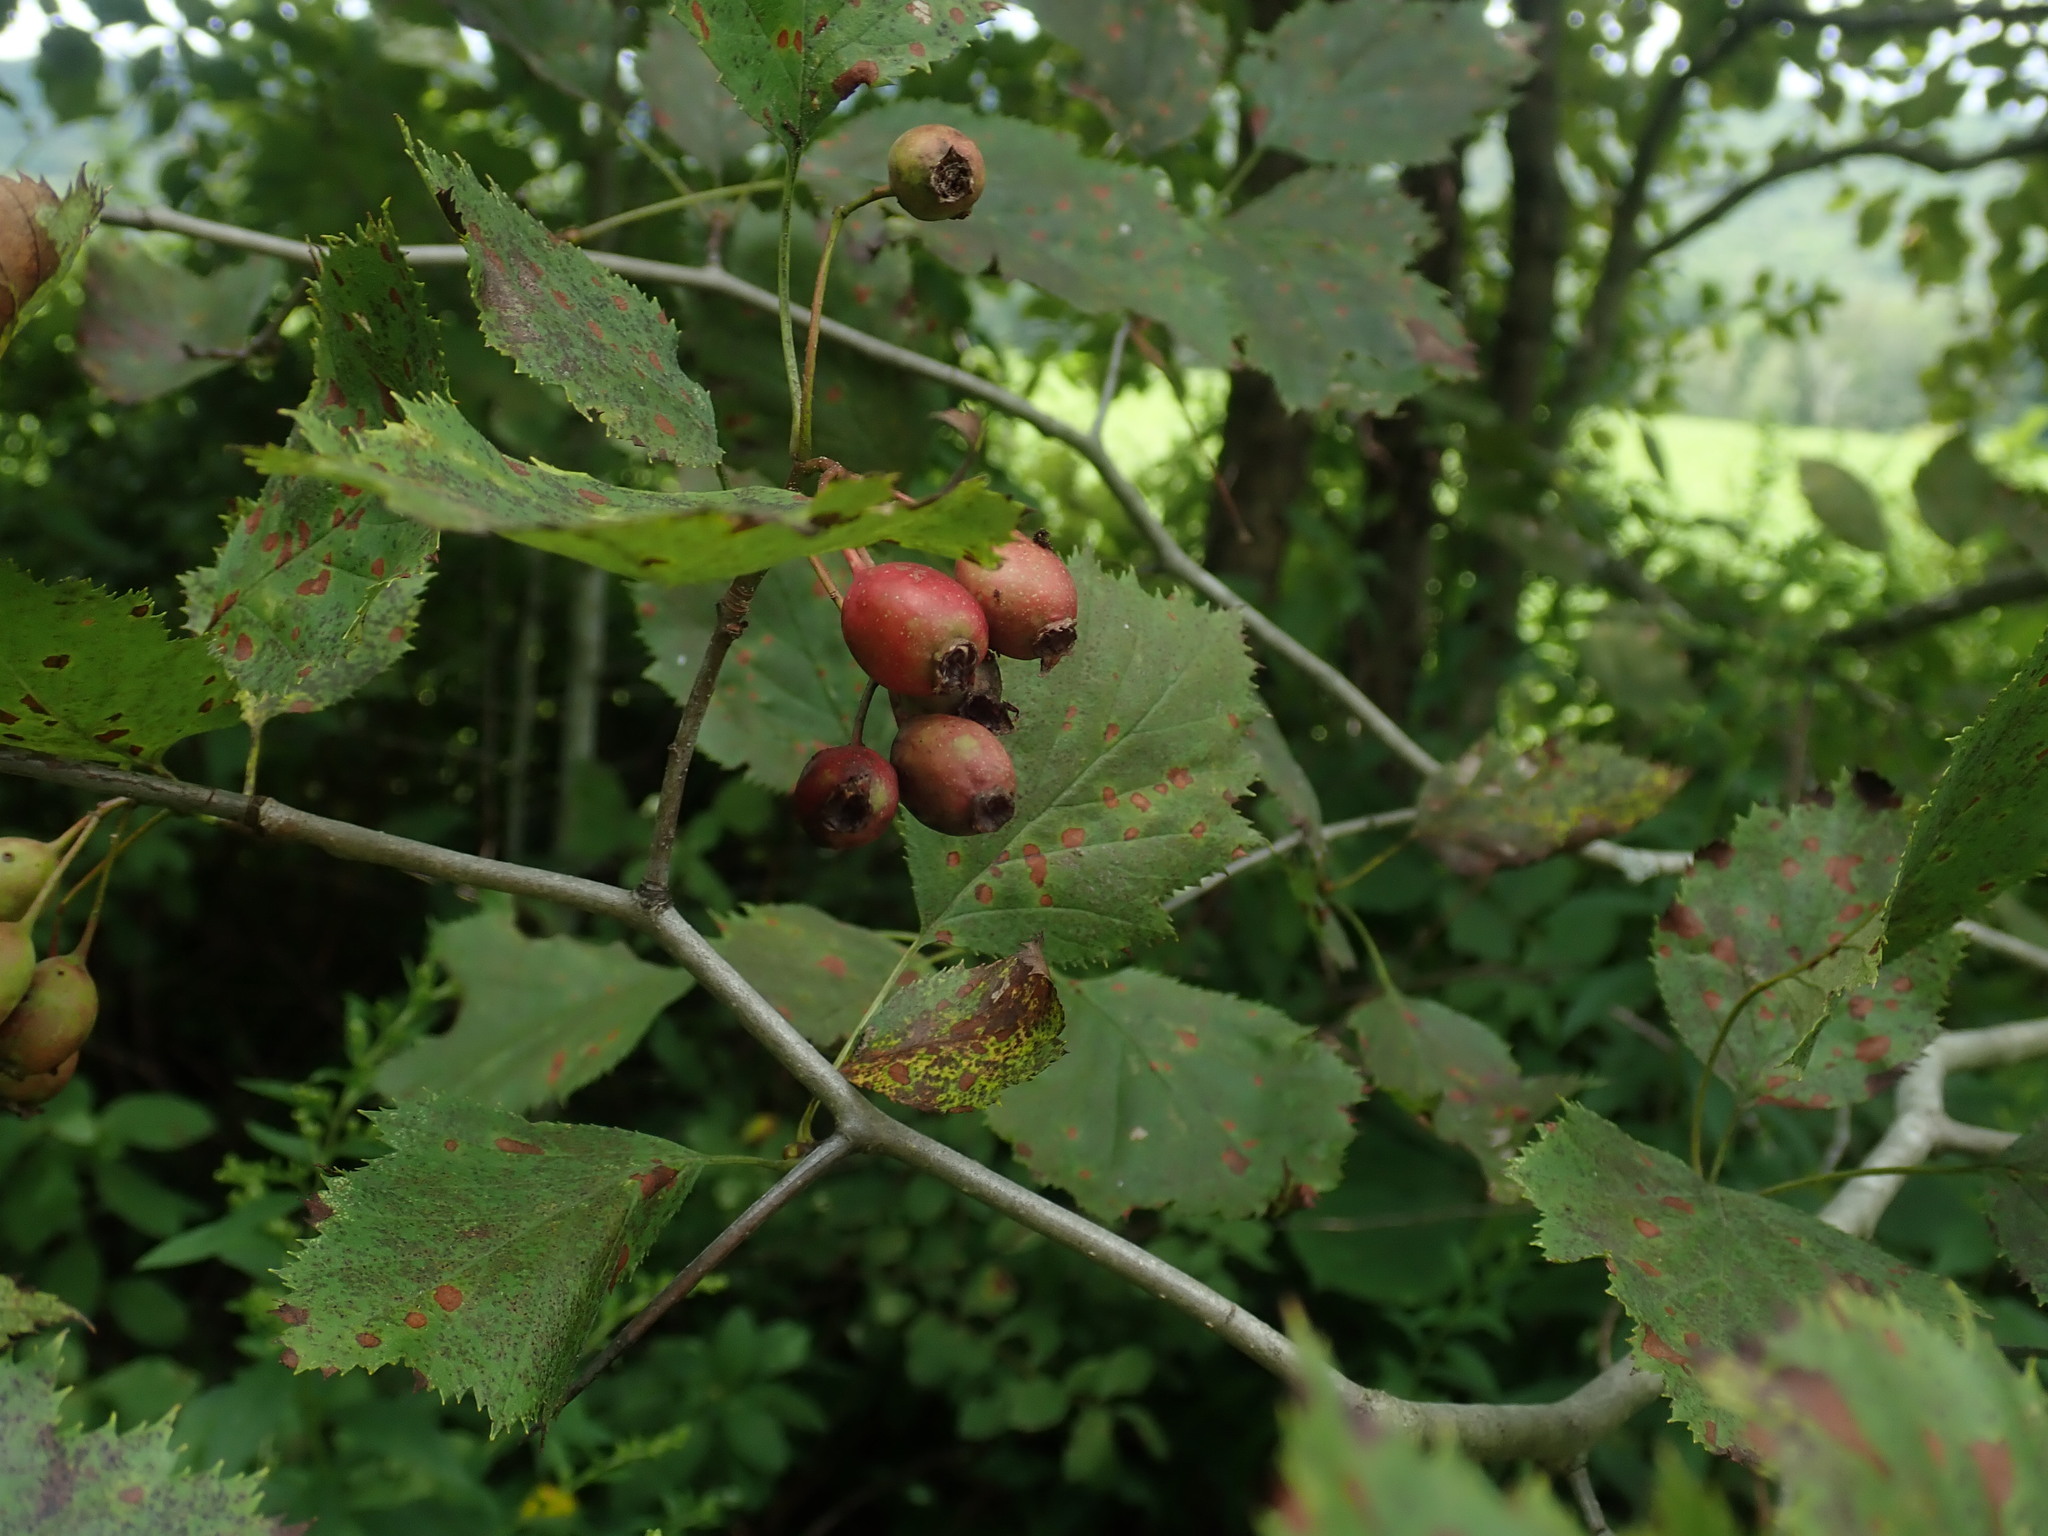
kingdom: Plantae
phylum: Tracheophyta
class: Magnoliopsida
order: Rosales
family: Rosaceae
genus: Crataegus
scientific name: Crataegus
